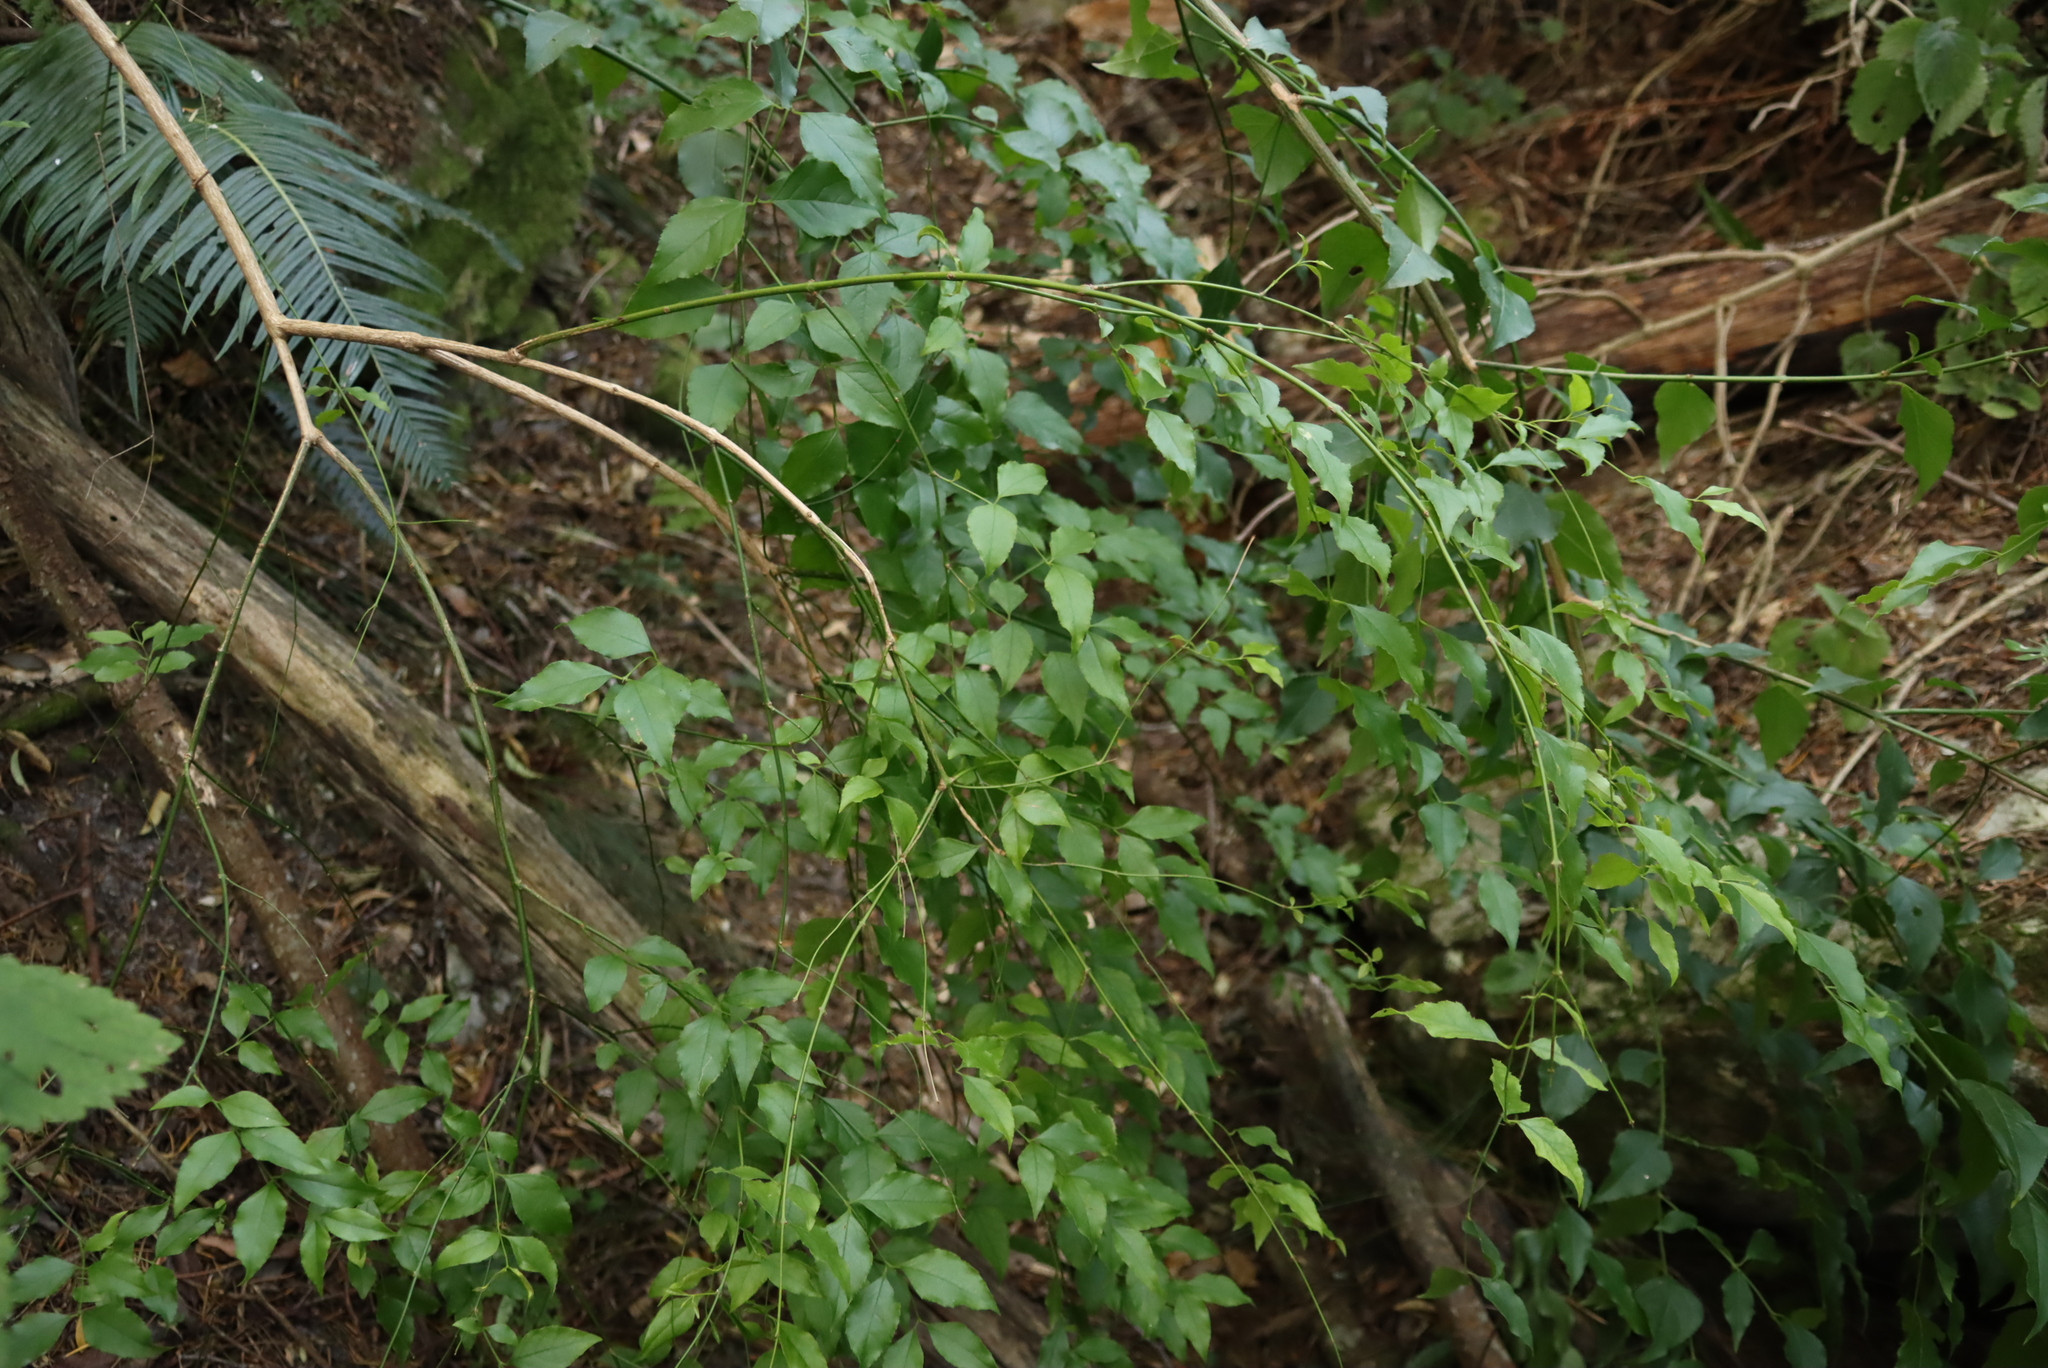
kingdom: Plantae
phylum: Tracheophyta
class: Magnoliopsida
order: Lamiales
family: Stilbaceae
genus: Halleria
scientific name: Halleria lucida
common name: Tree fuschia
